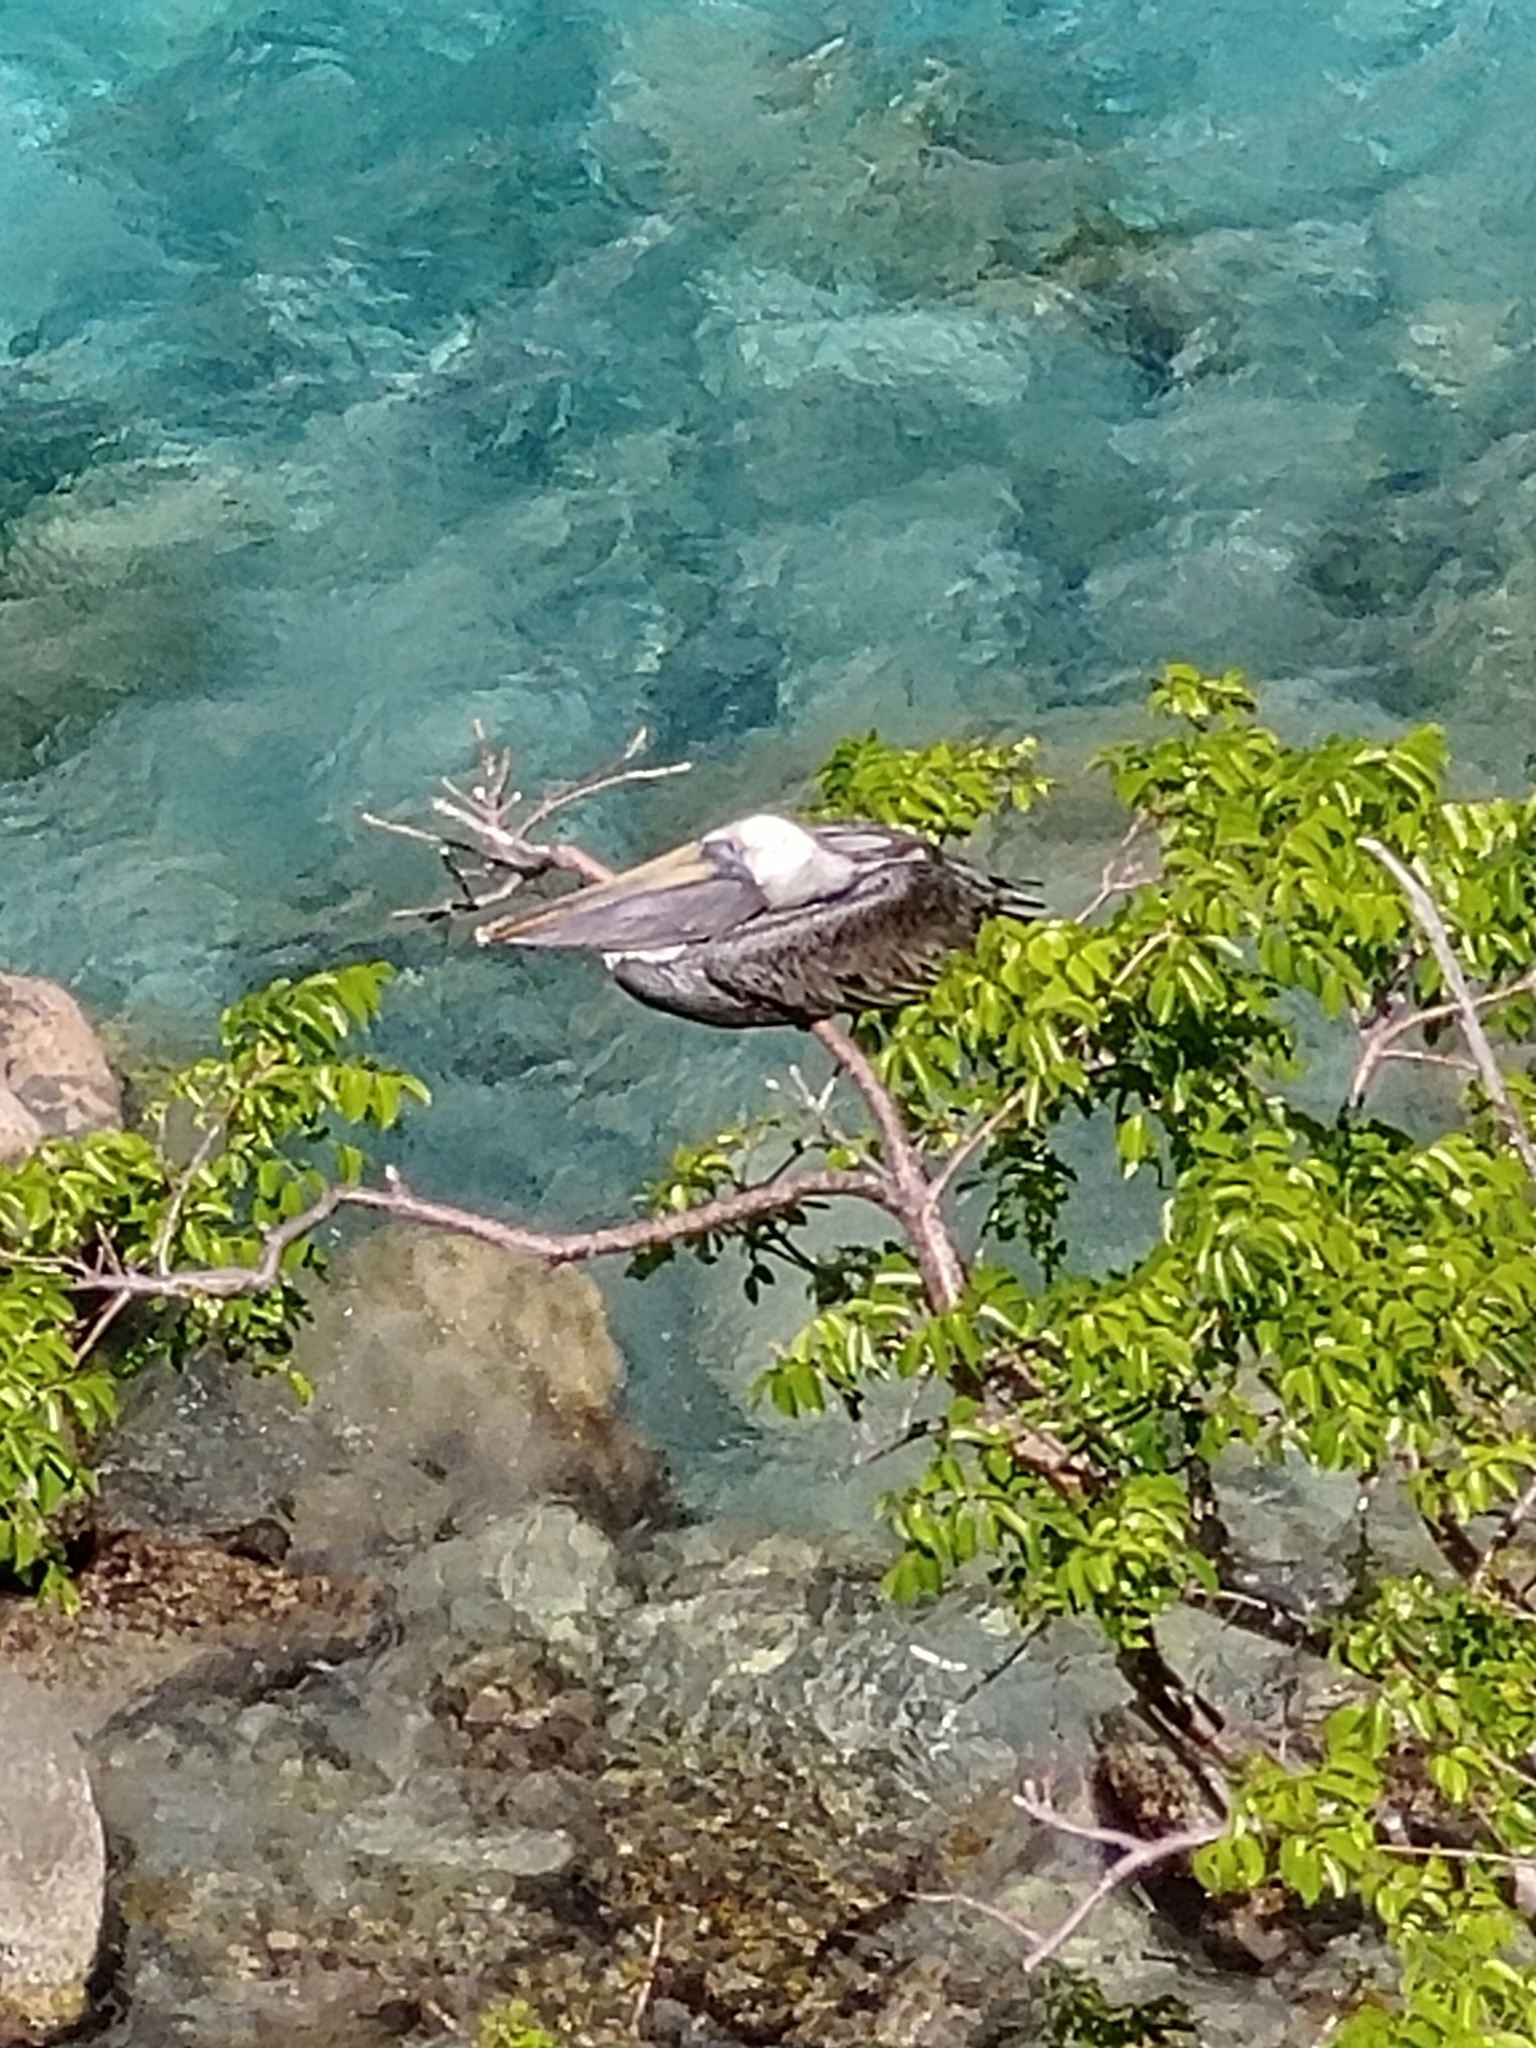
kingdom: Animalia
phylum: Chordata
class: Aves
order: Pelecaniformes
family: Pelecanidae
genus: Pelecanus
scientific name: Pelecanus occidentalis
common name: Brown pelican
